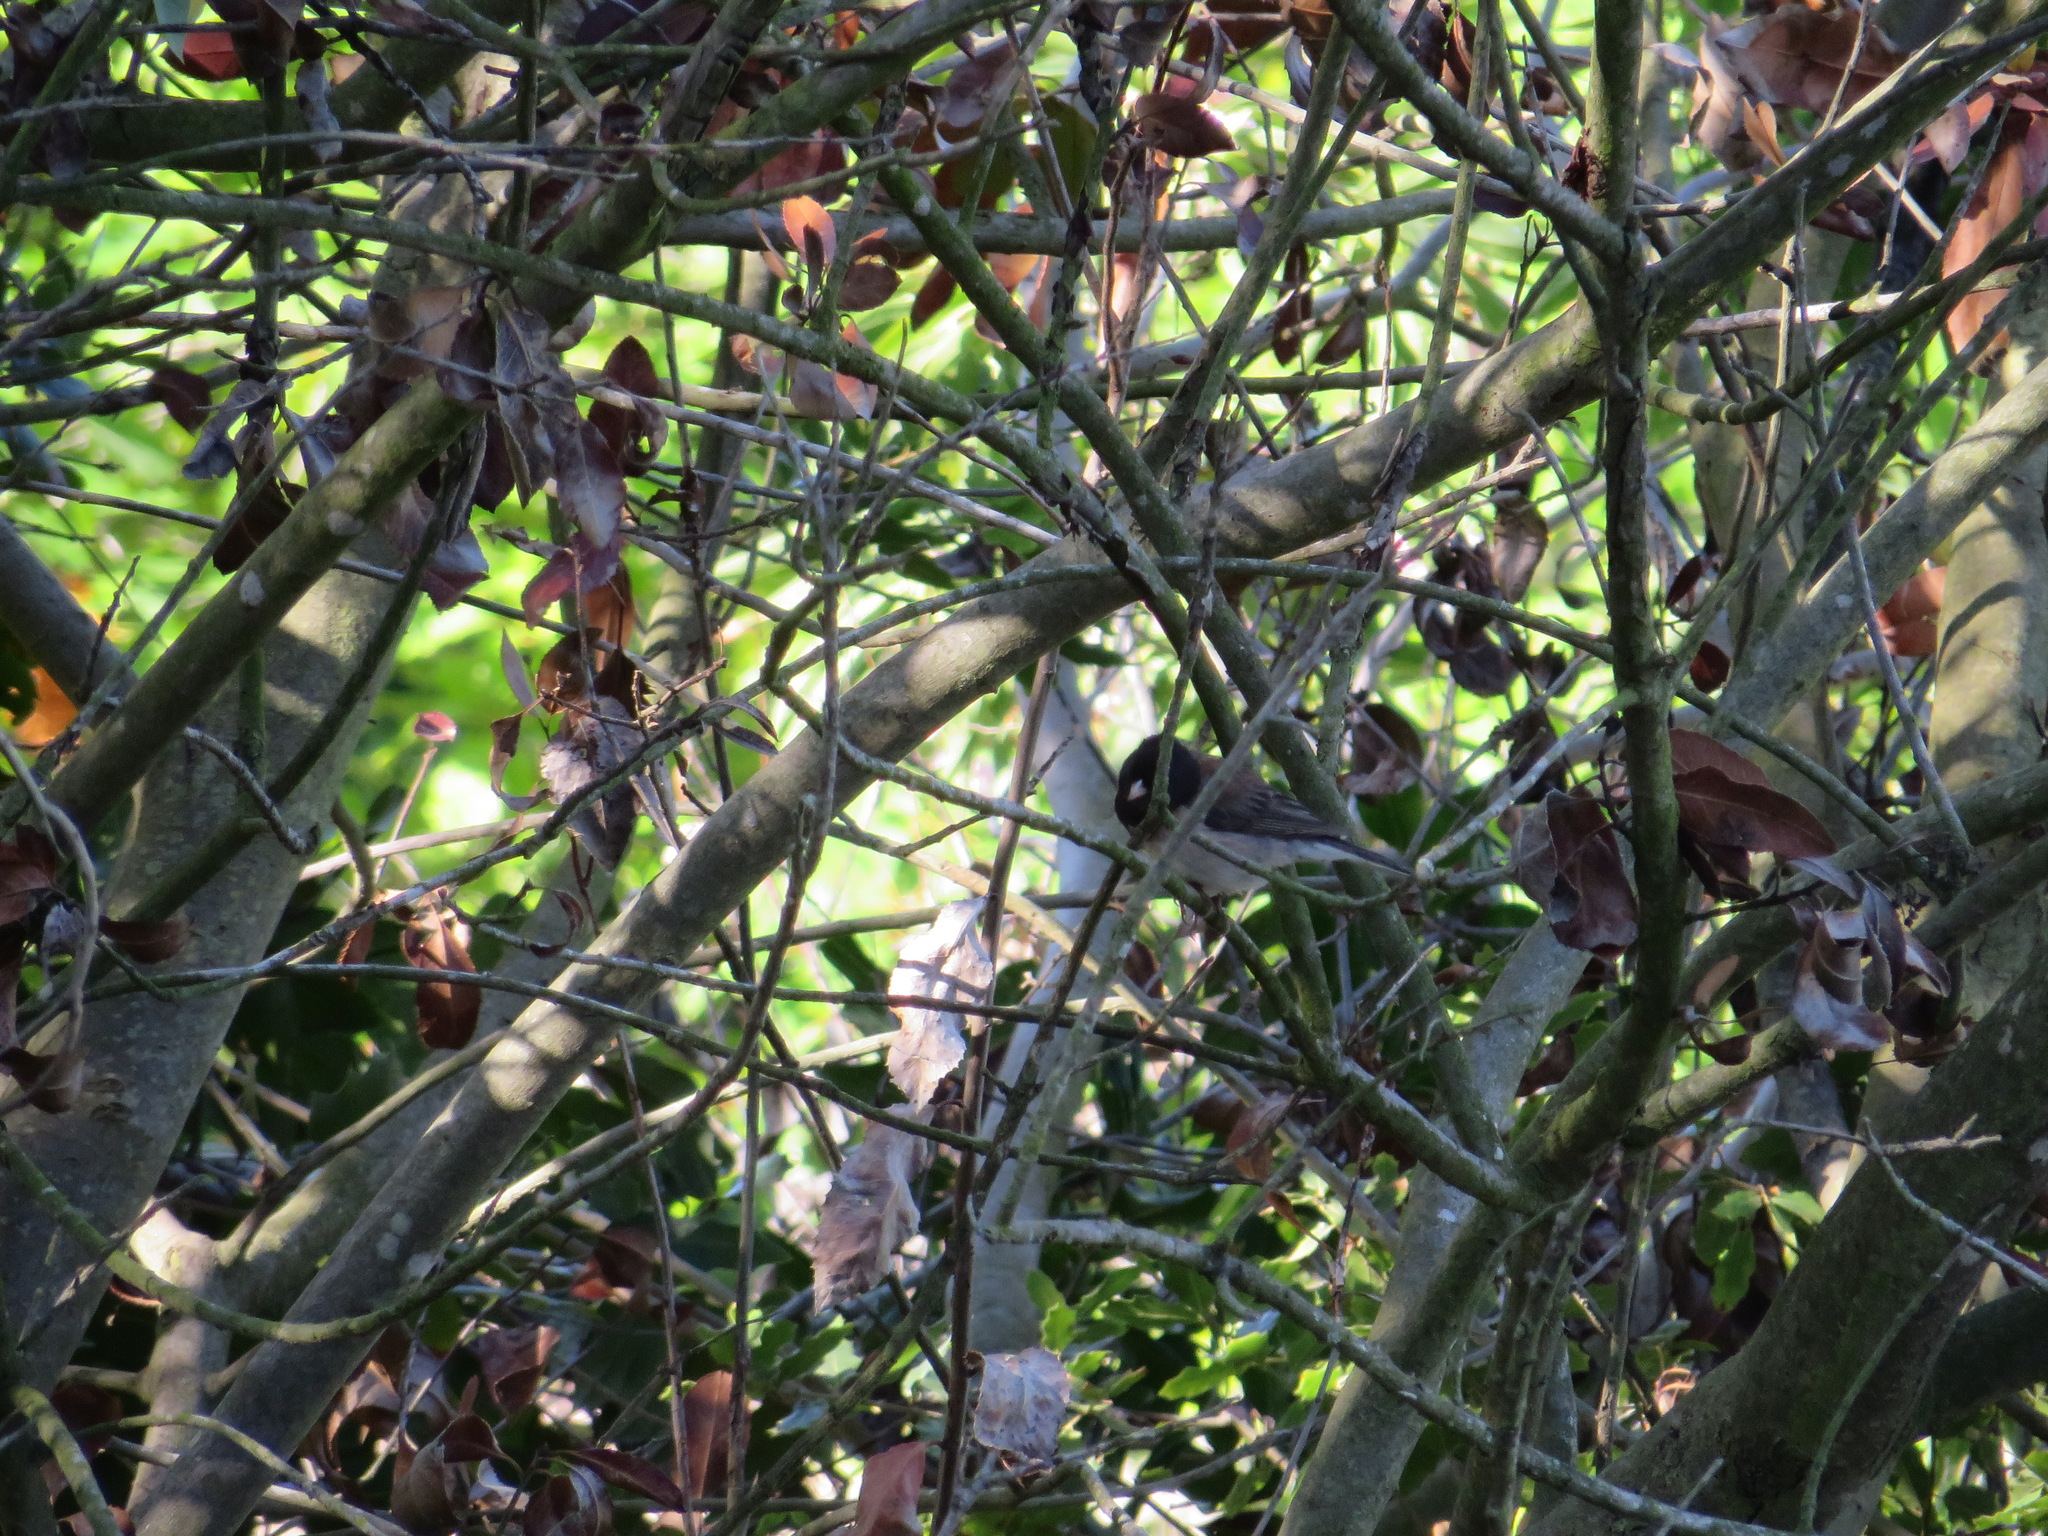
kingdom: Animalia
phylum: Chordata
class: Aves
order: Passeriformes
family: Passerellidae
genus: Junco
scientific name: Junco hyemalis
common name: Dark-eyed junco
